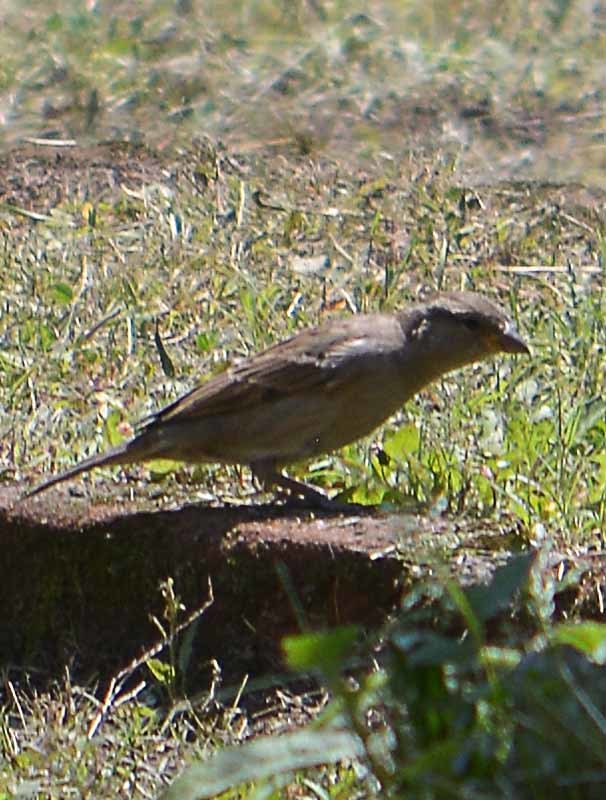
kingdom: Animalia
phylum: Chordata
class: Aves
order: Passeriformes
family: Passeridae
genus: Passer
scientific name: Passer domesticus
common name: House sparrow
